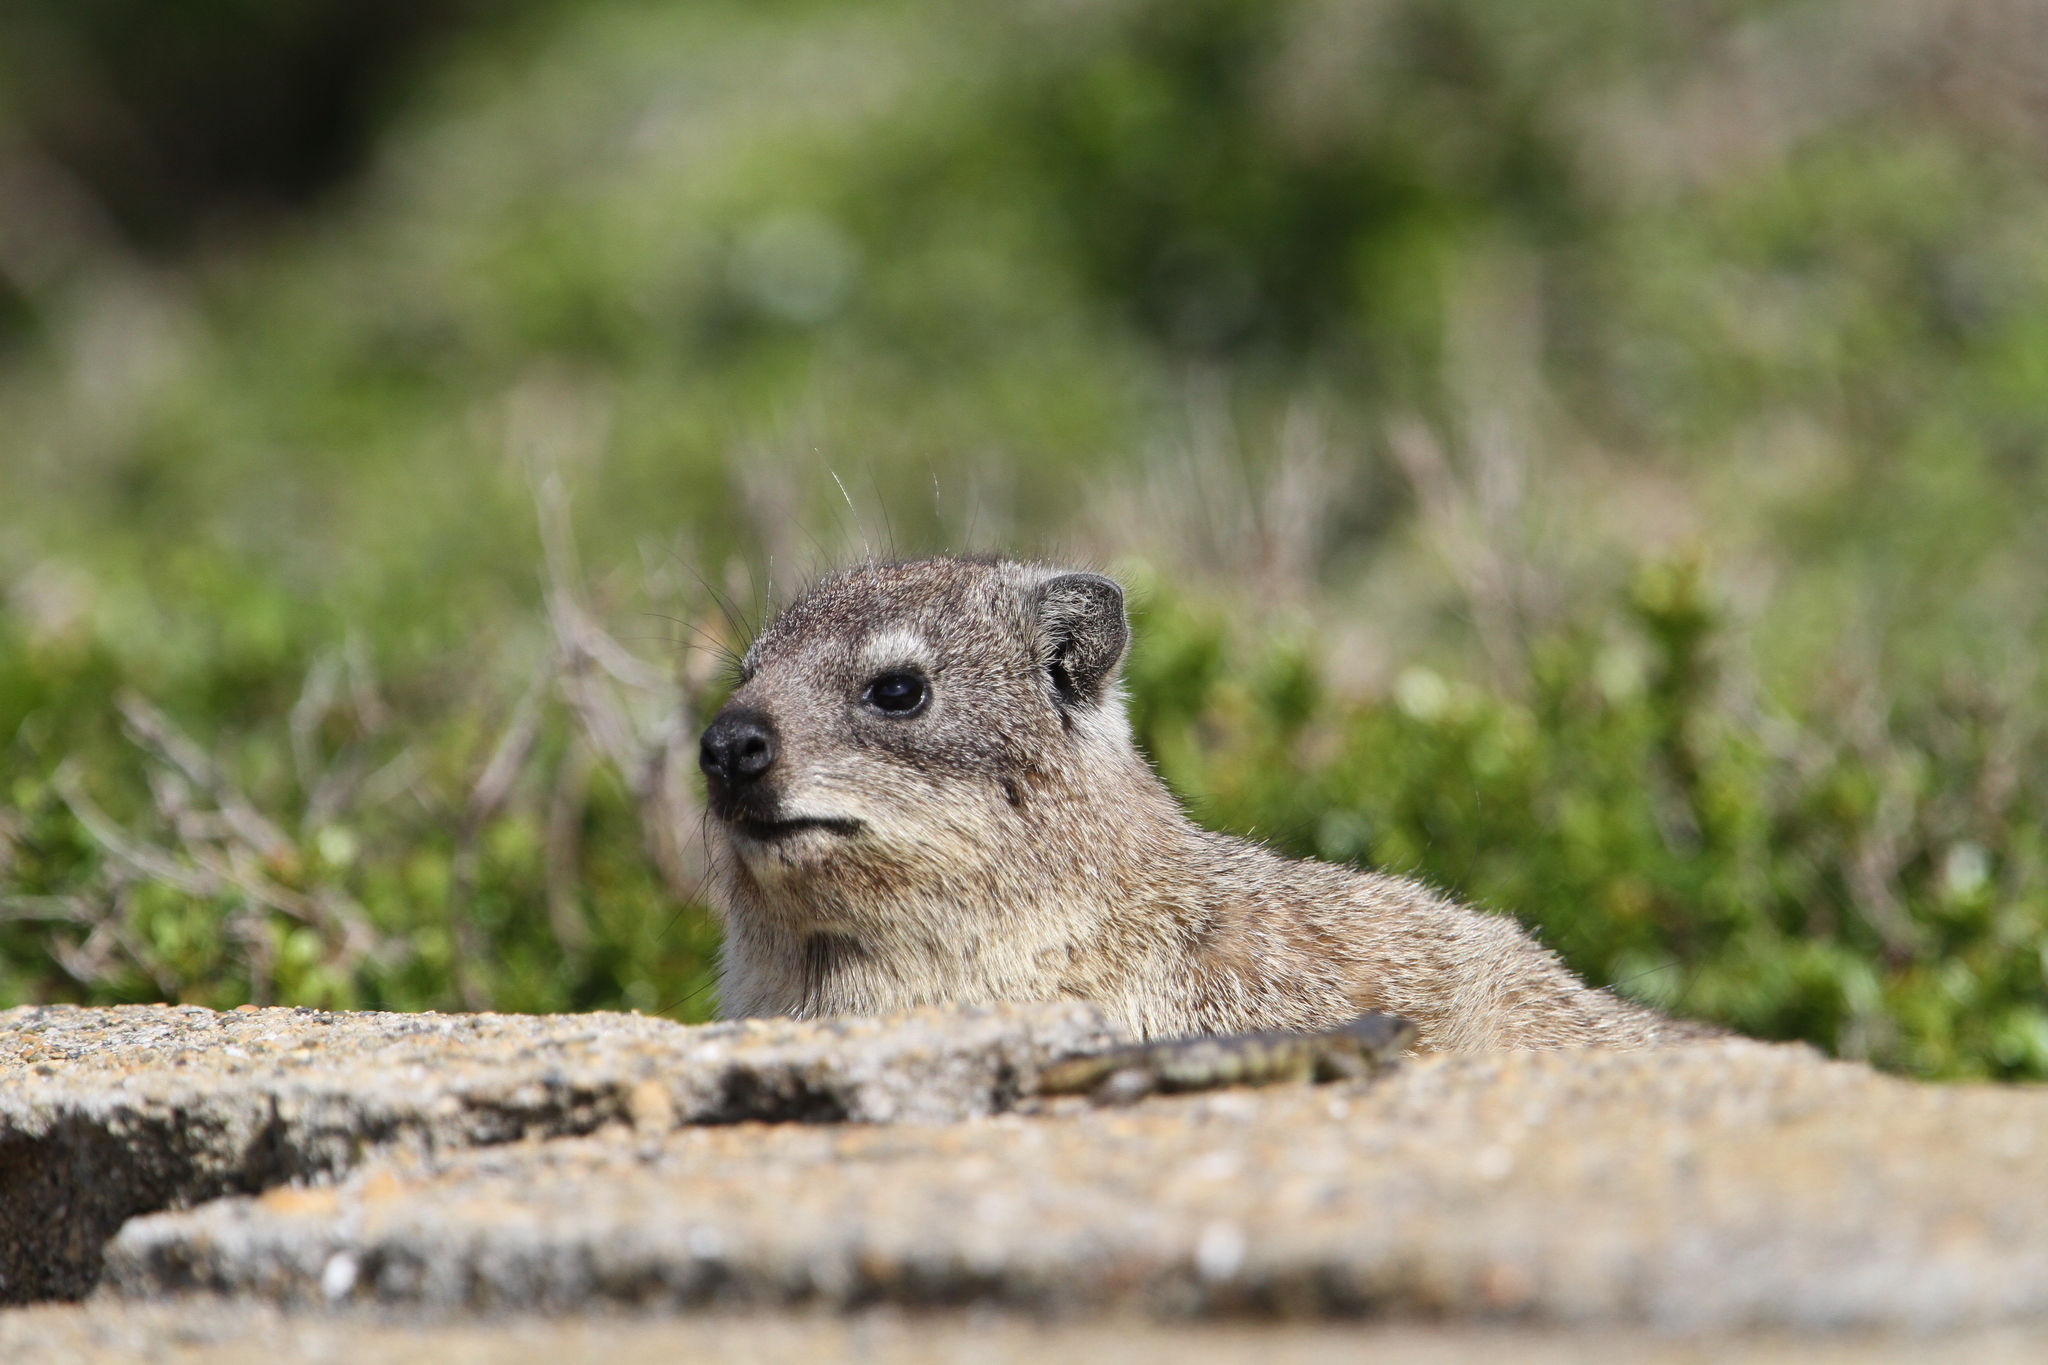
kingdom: Animalia
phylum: Chordata
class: Mammalia
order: Hyracoidea
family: Procaviidae
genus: Procavia
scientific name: Procavia capensis
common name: Rock hyrax
